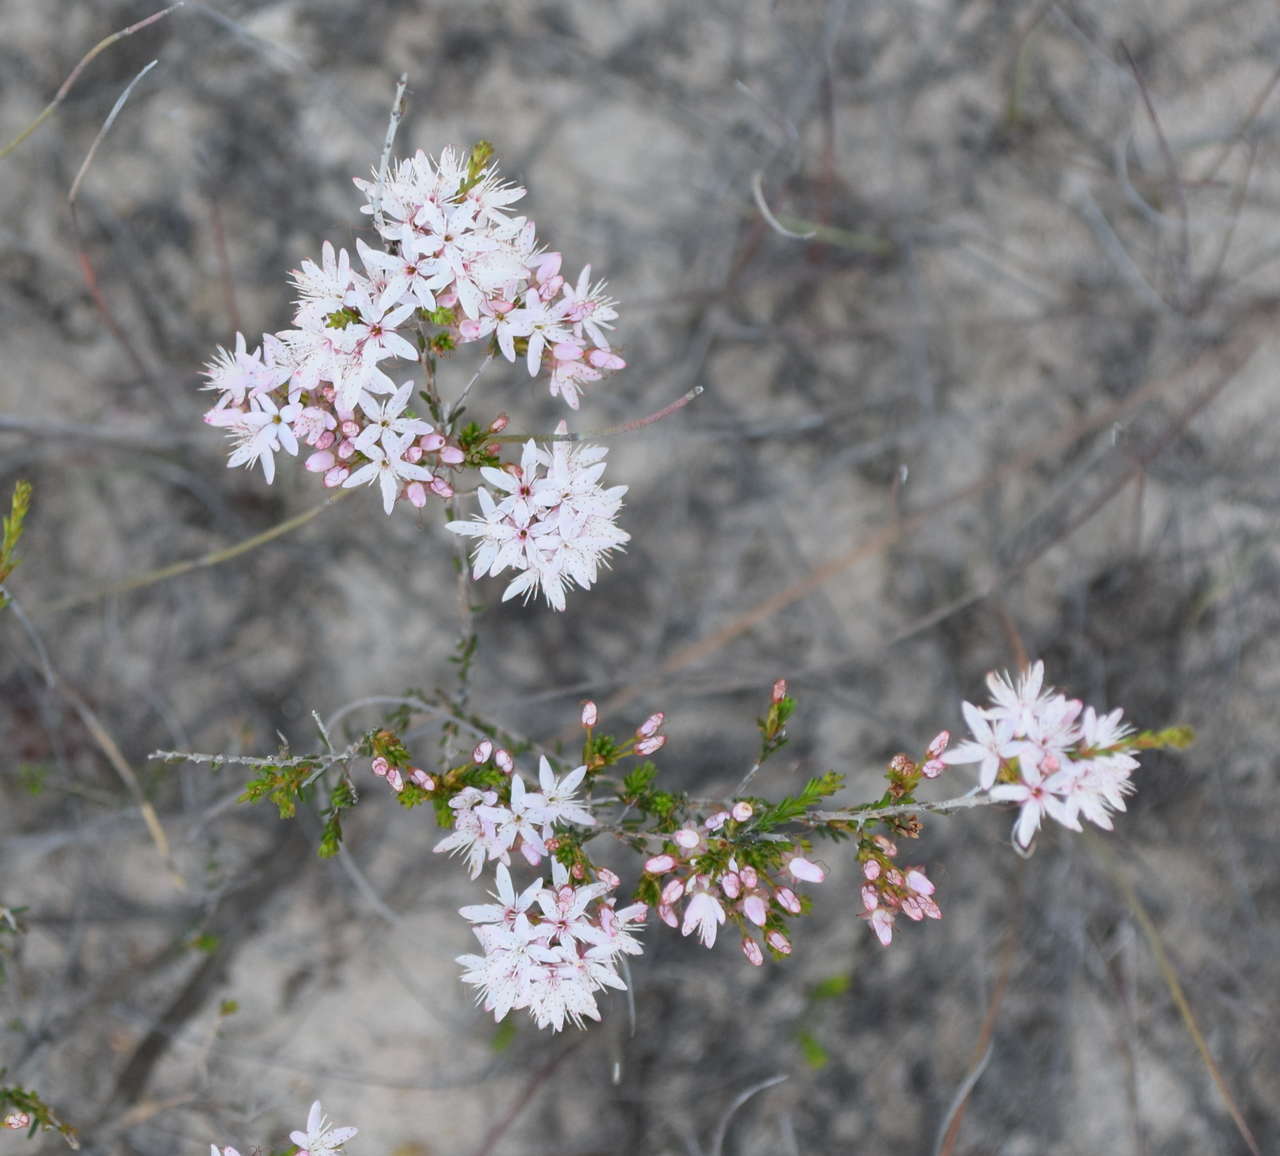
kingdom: Plantae
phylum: Tracheophyta
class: Magnoliopsida
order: Myrtales
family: Myrtaceae
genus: Calytrix
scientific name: Calytrix tetragona
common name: Common fringe myrtle
